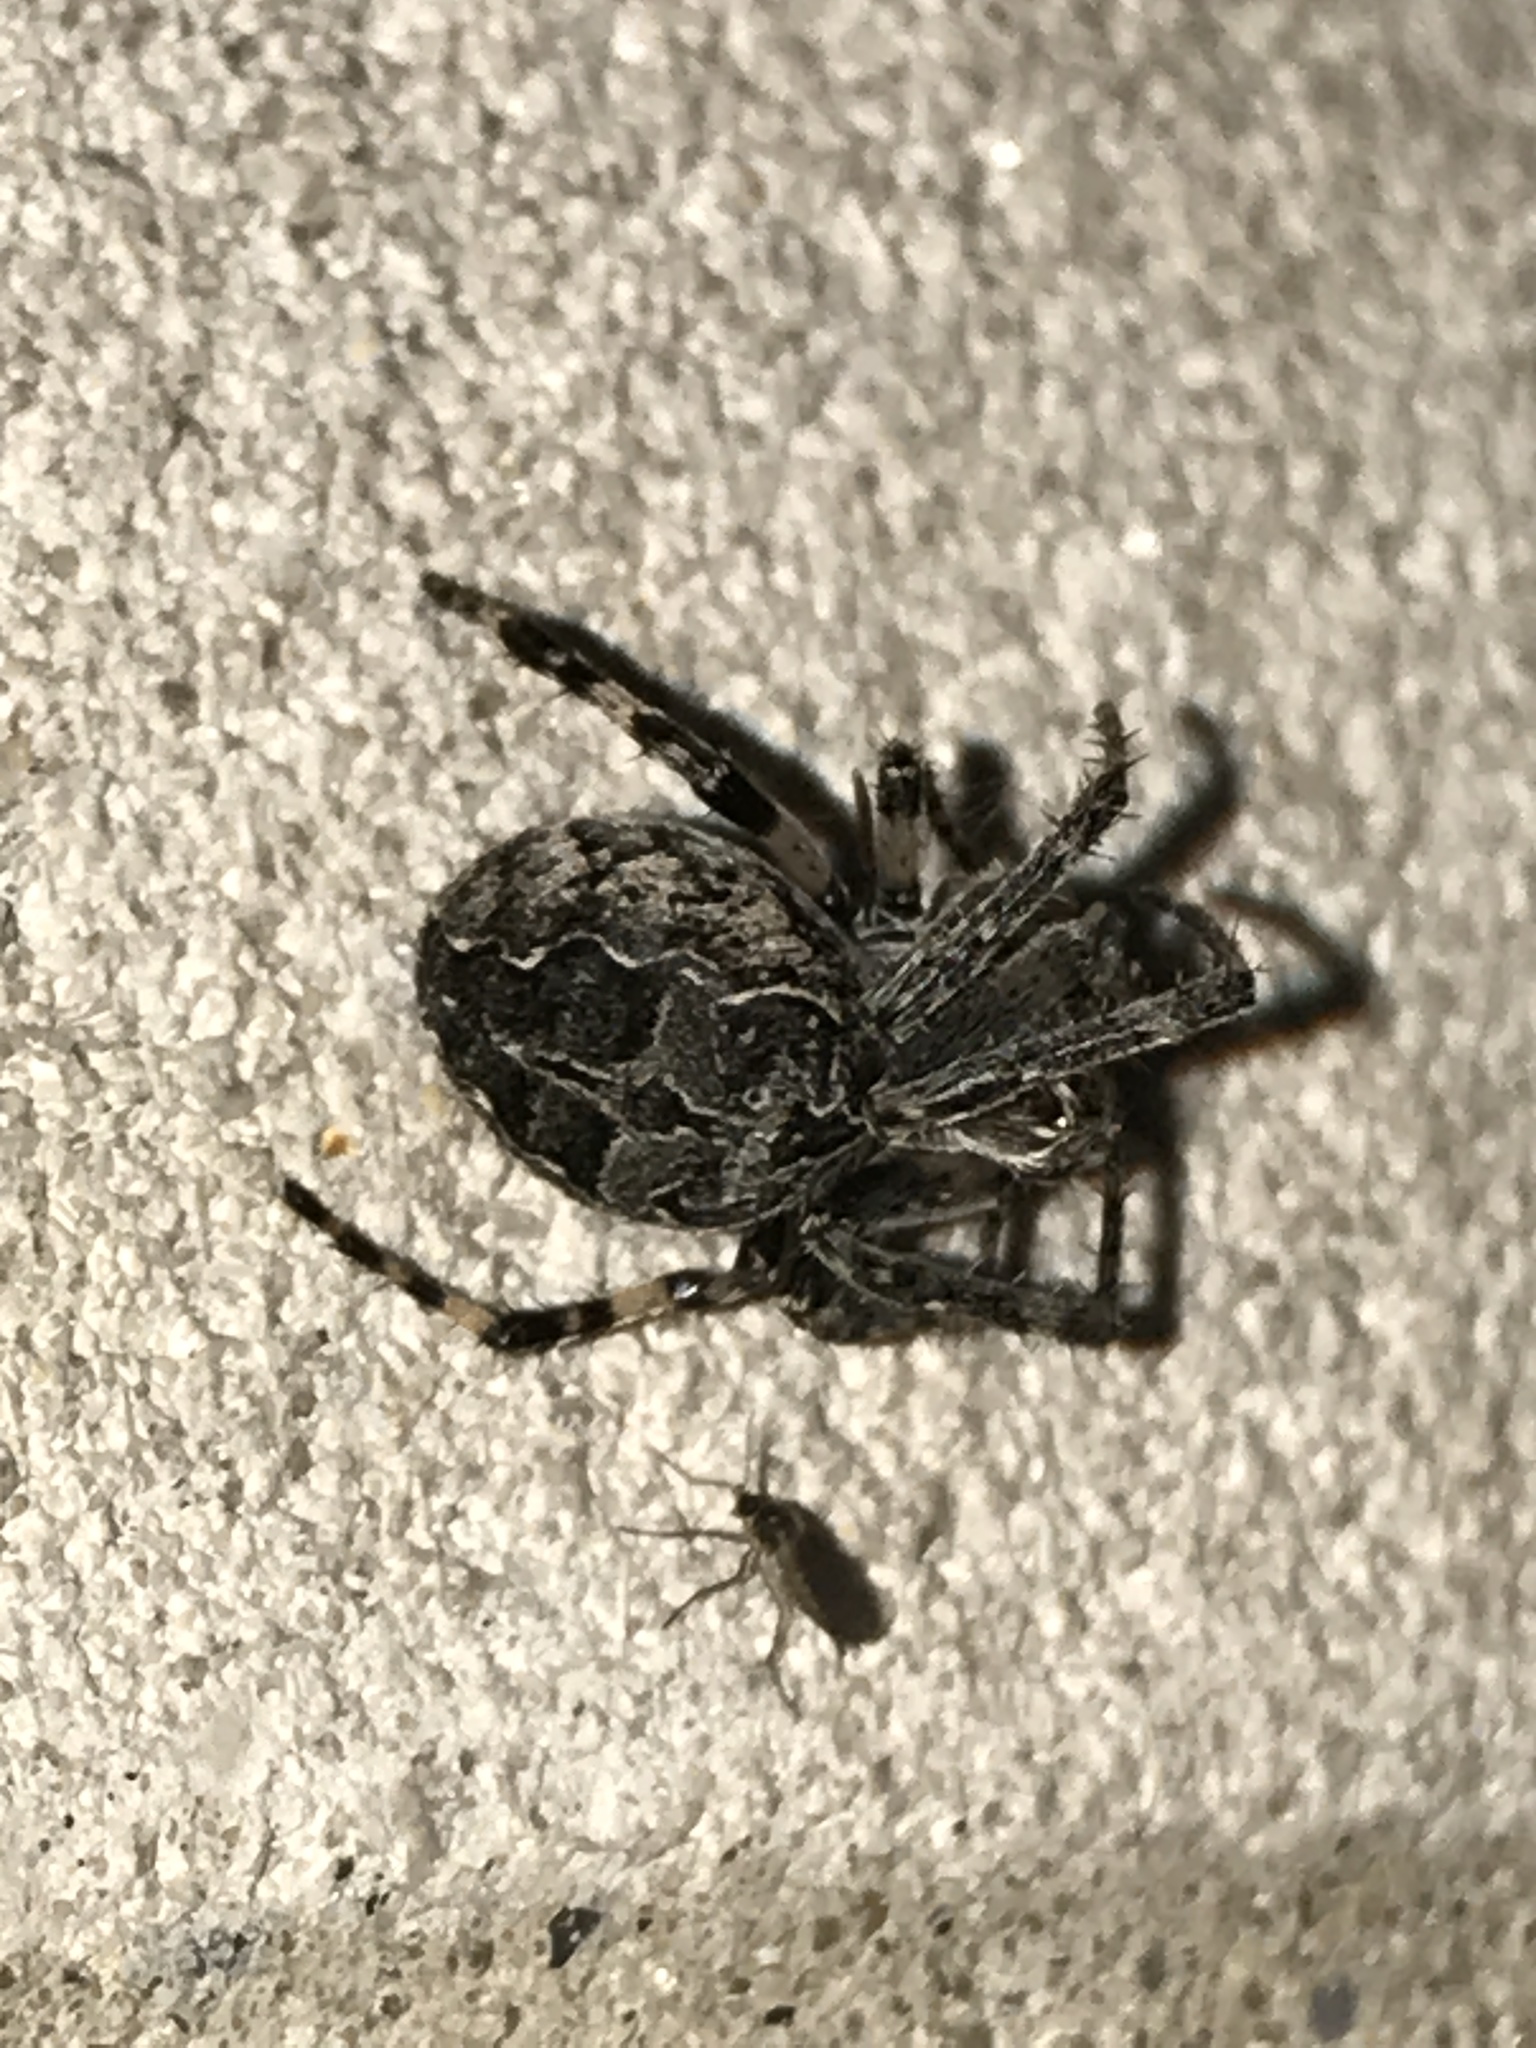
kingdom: Animalia
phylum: Arthropoda
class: Arachnida
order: Araneae
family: Araneidae
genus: Larinioides
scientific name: Larinioides sclopetarius
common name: Bridge orbweaver
